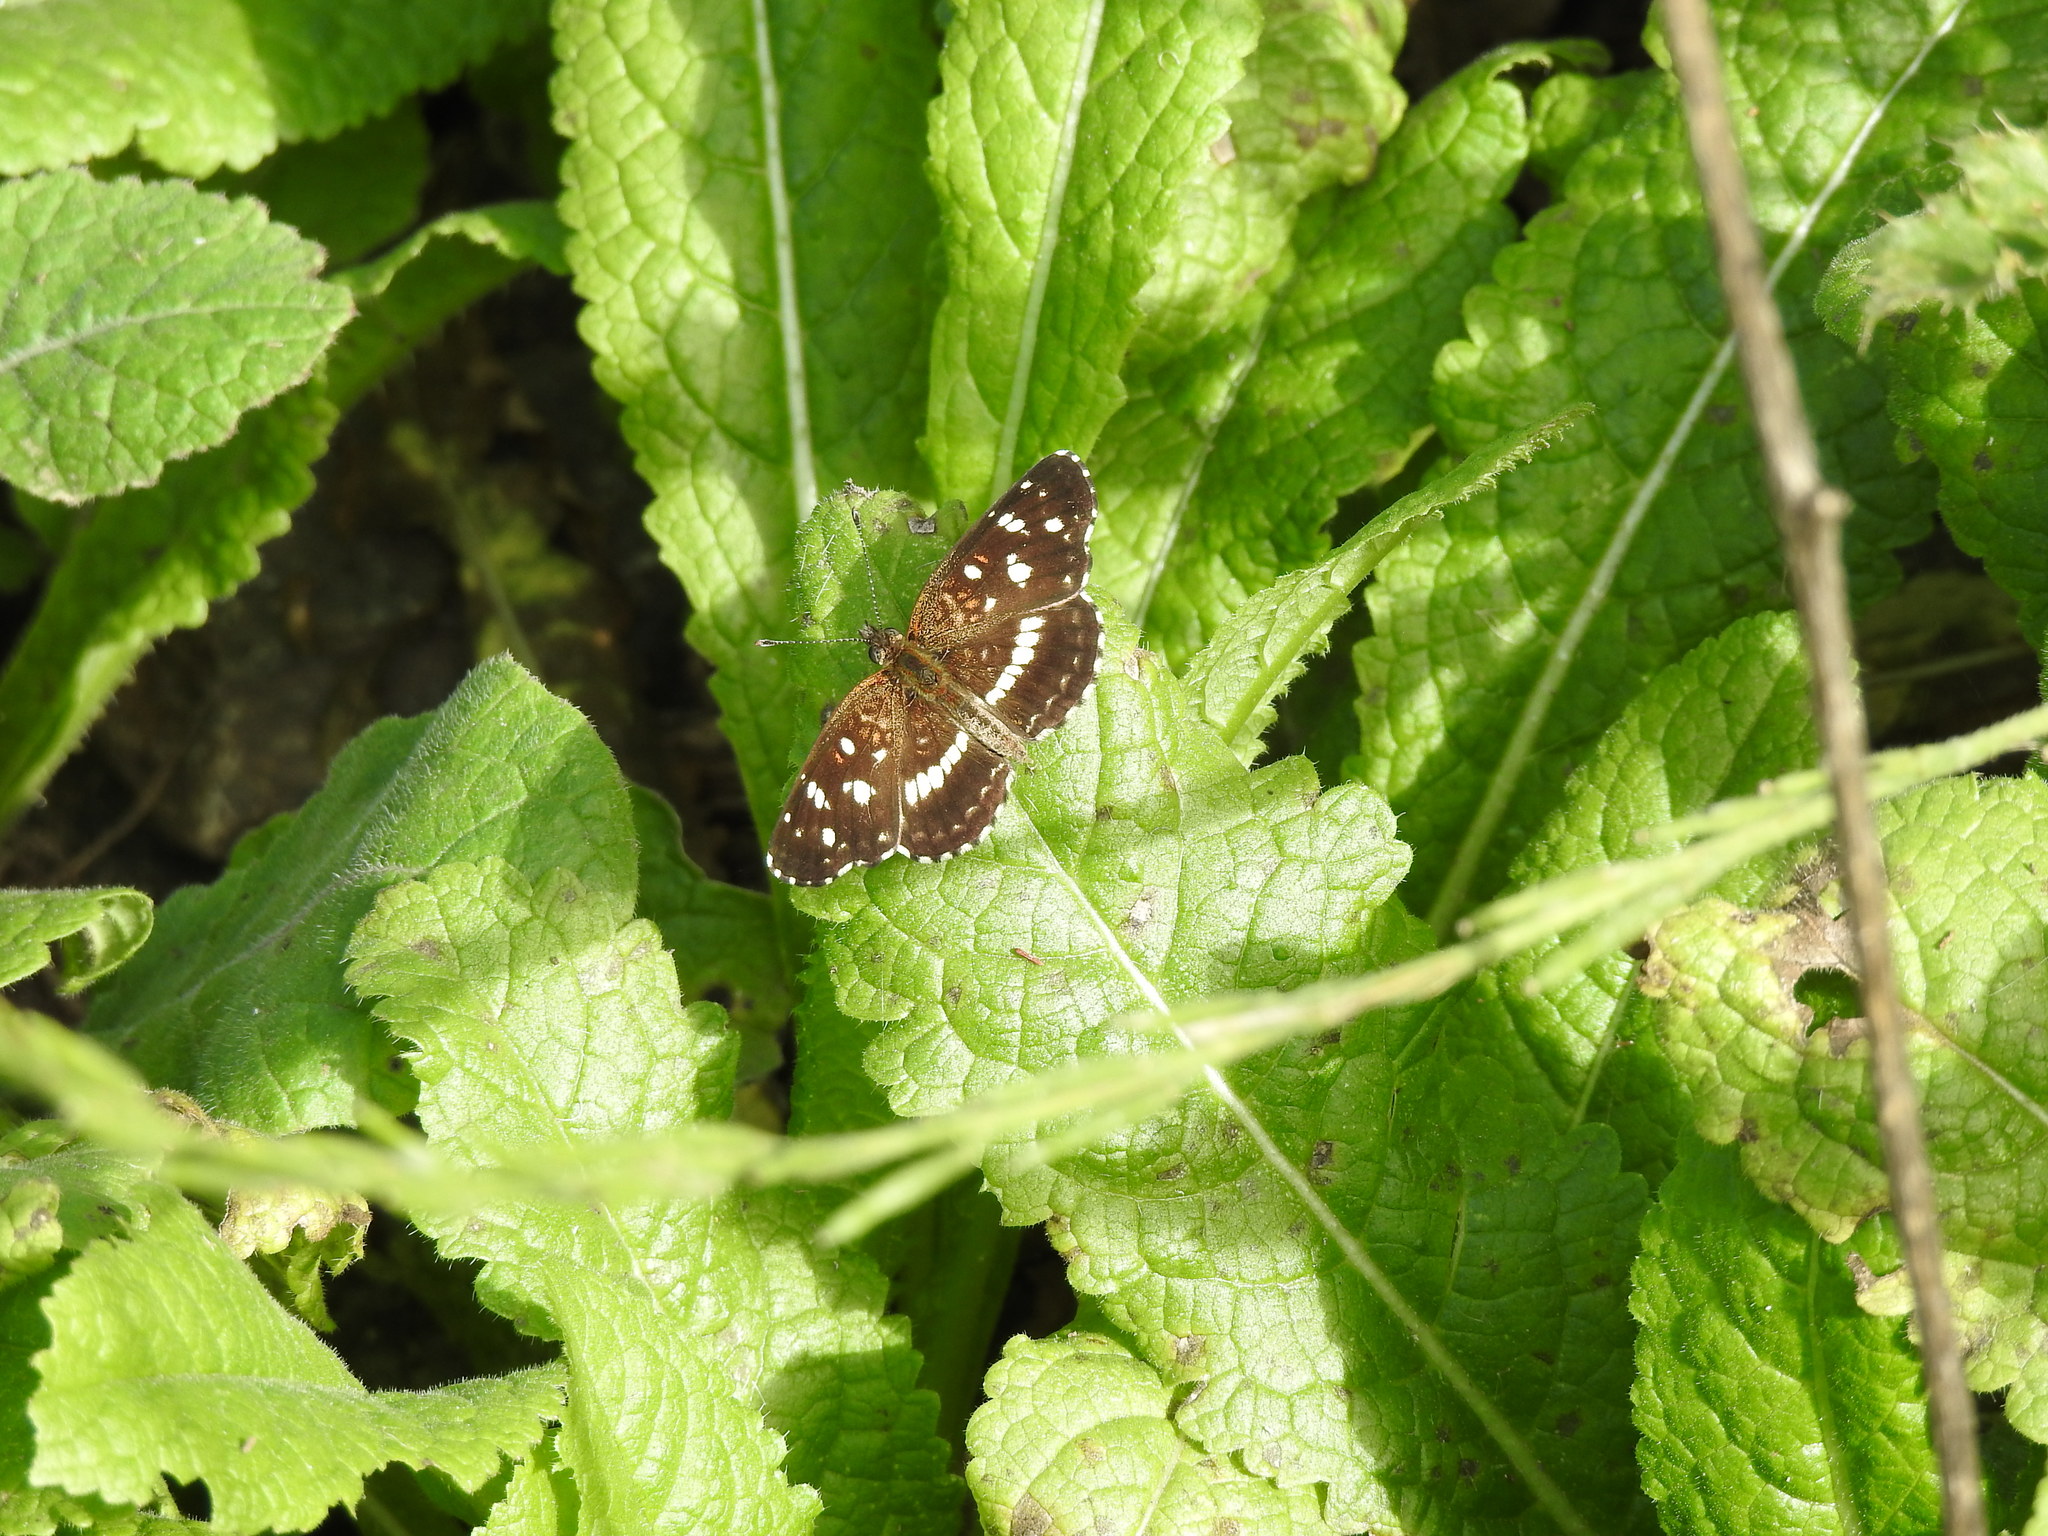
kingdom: Animalia
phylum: Arthropoda
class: Insecta
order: Lepidoptera
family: Nymphalidae
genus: Ortilia
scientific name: Ortilia ithra
